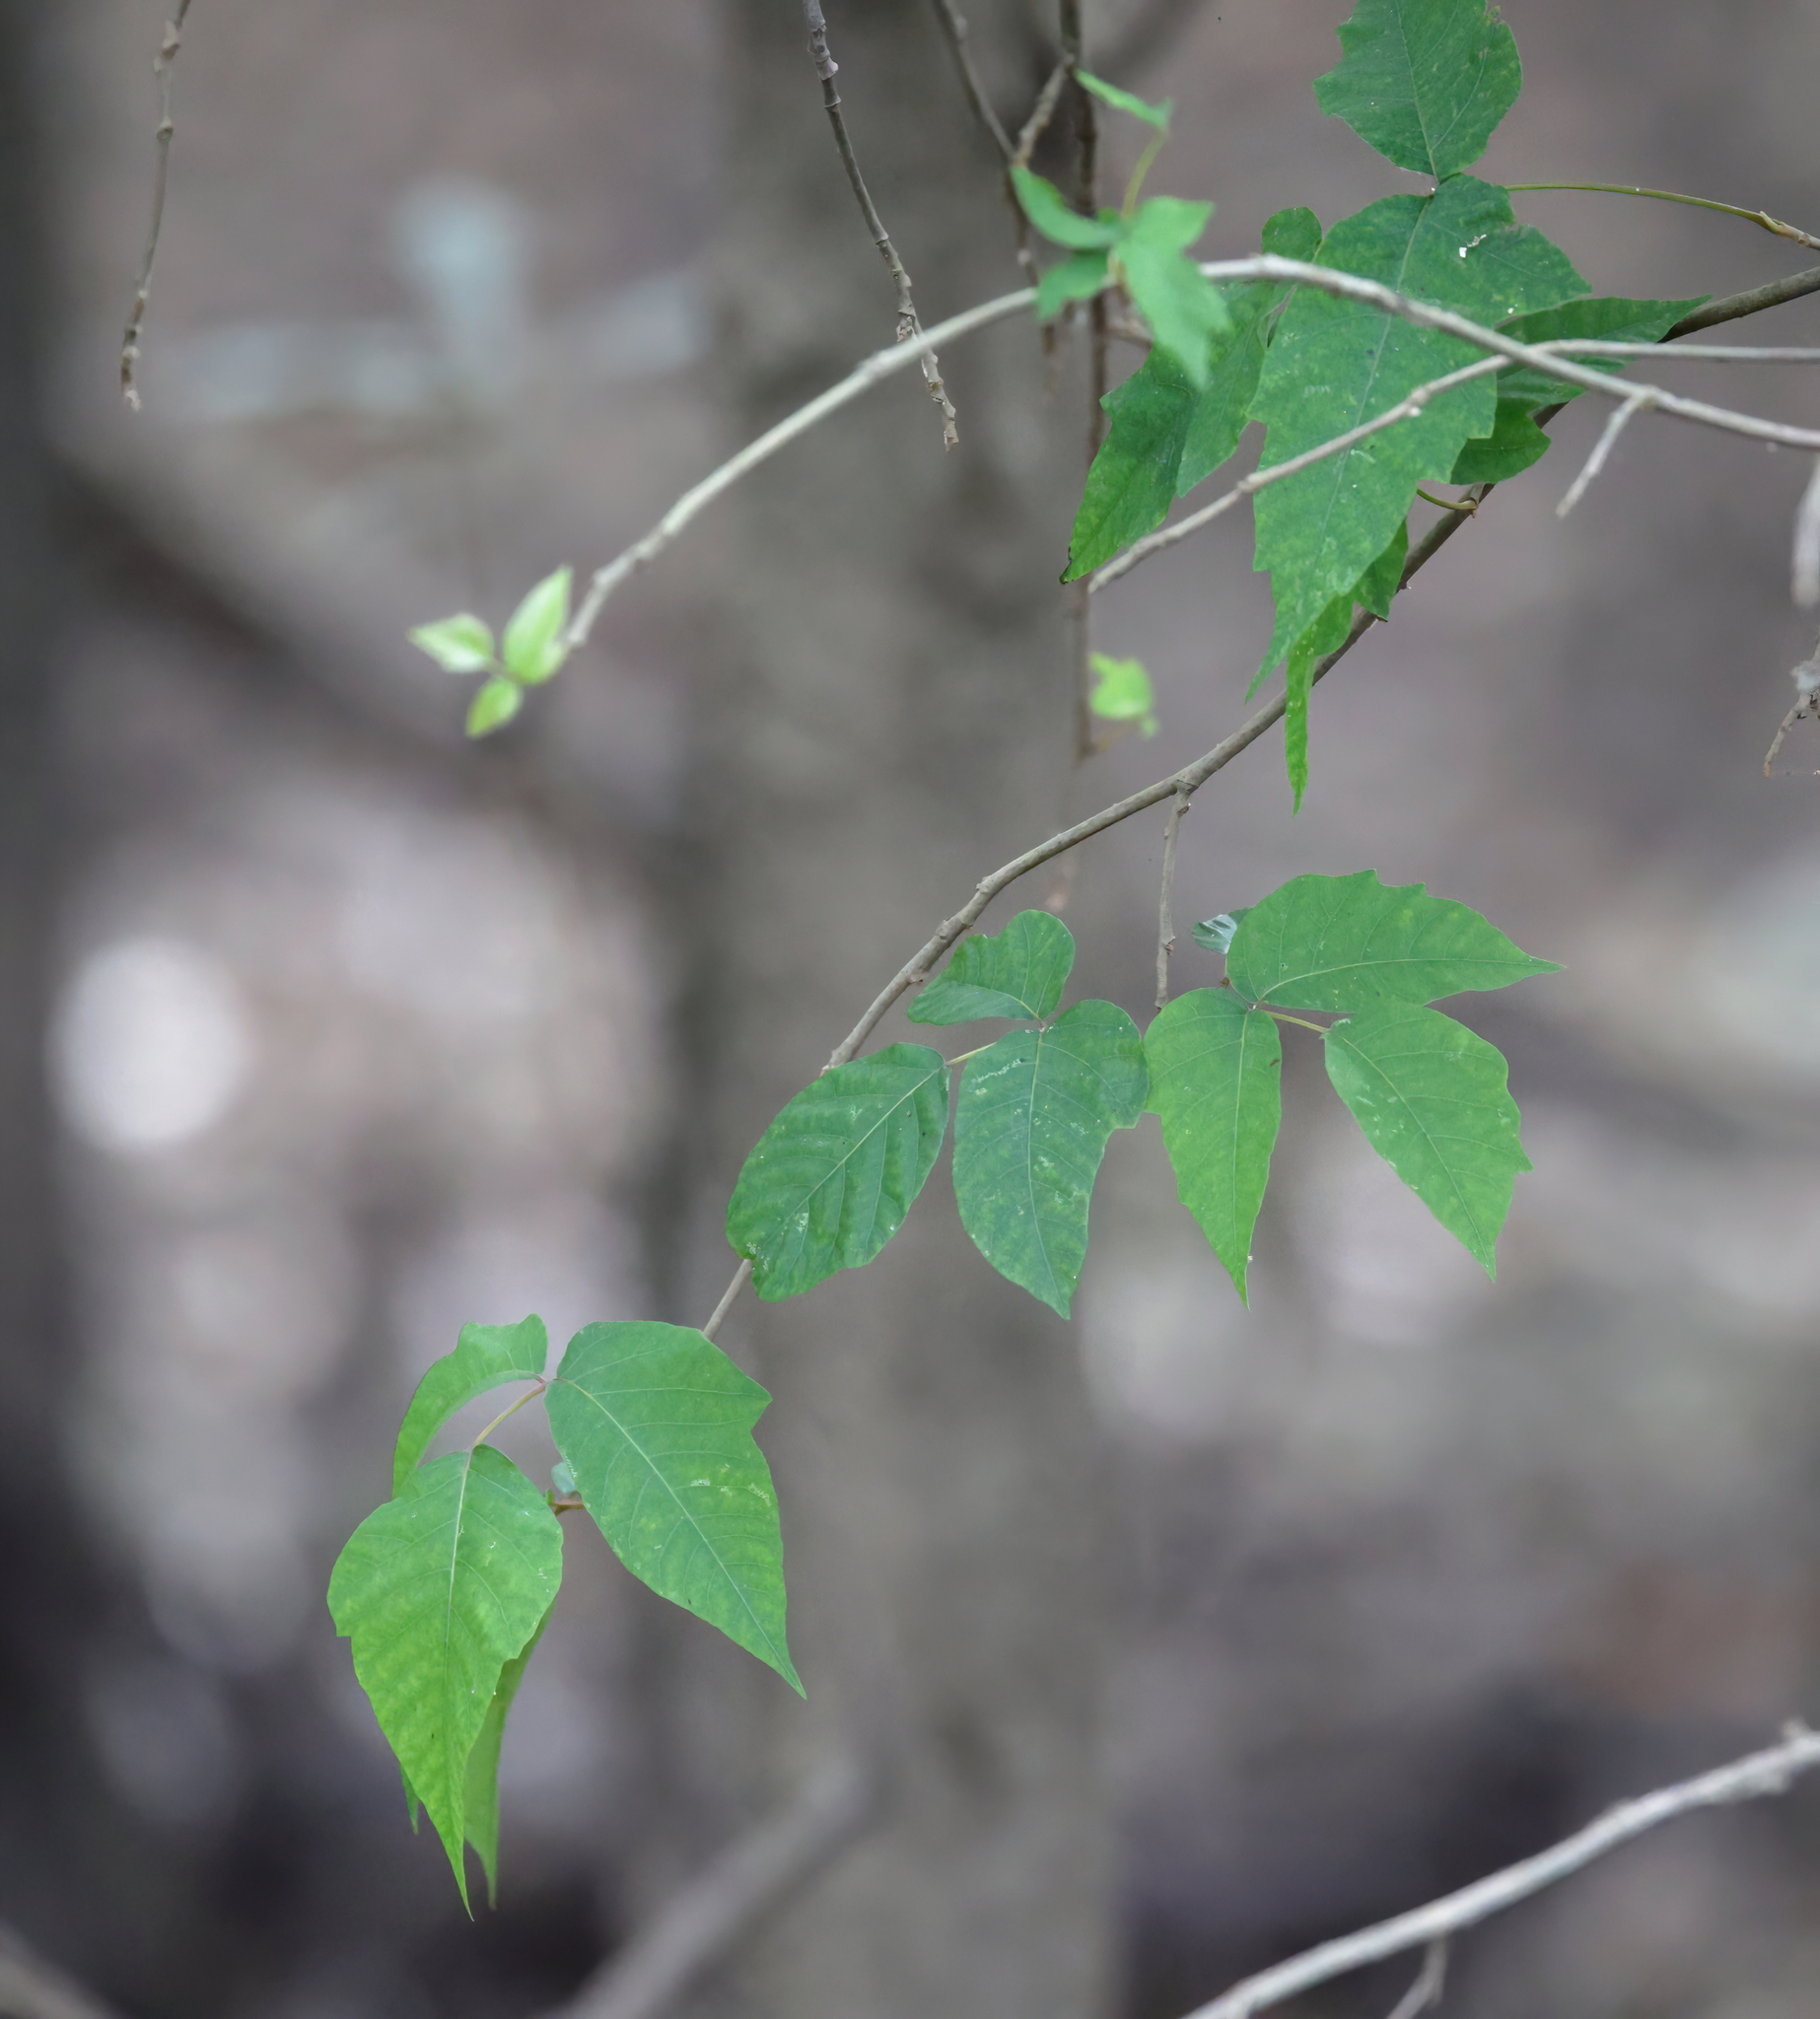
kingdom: Plantae
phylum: Tracheophyta
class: Magnoliopsida
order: Sapindales
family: Anacardiaceae
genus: Toxicodendron
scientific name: Toxicodendron radicans
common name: Poison ivy
